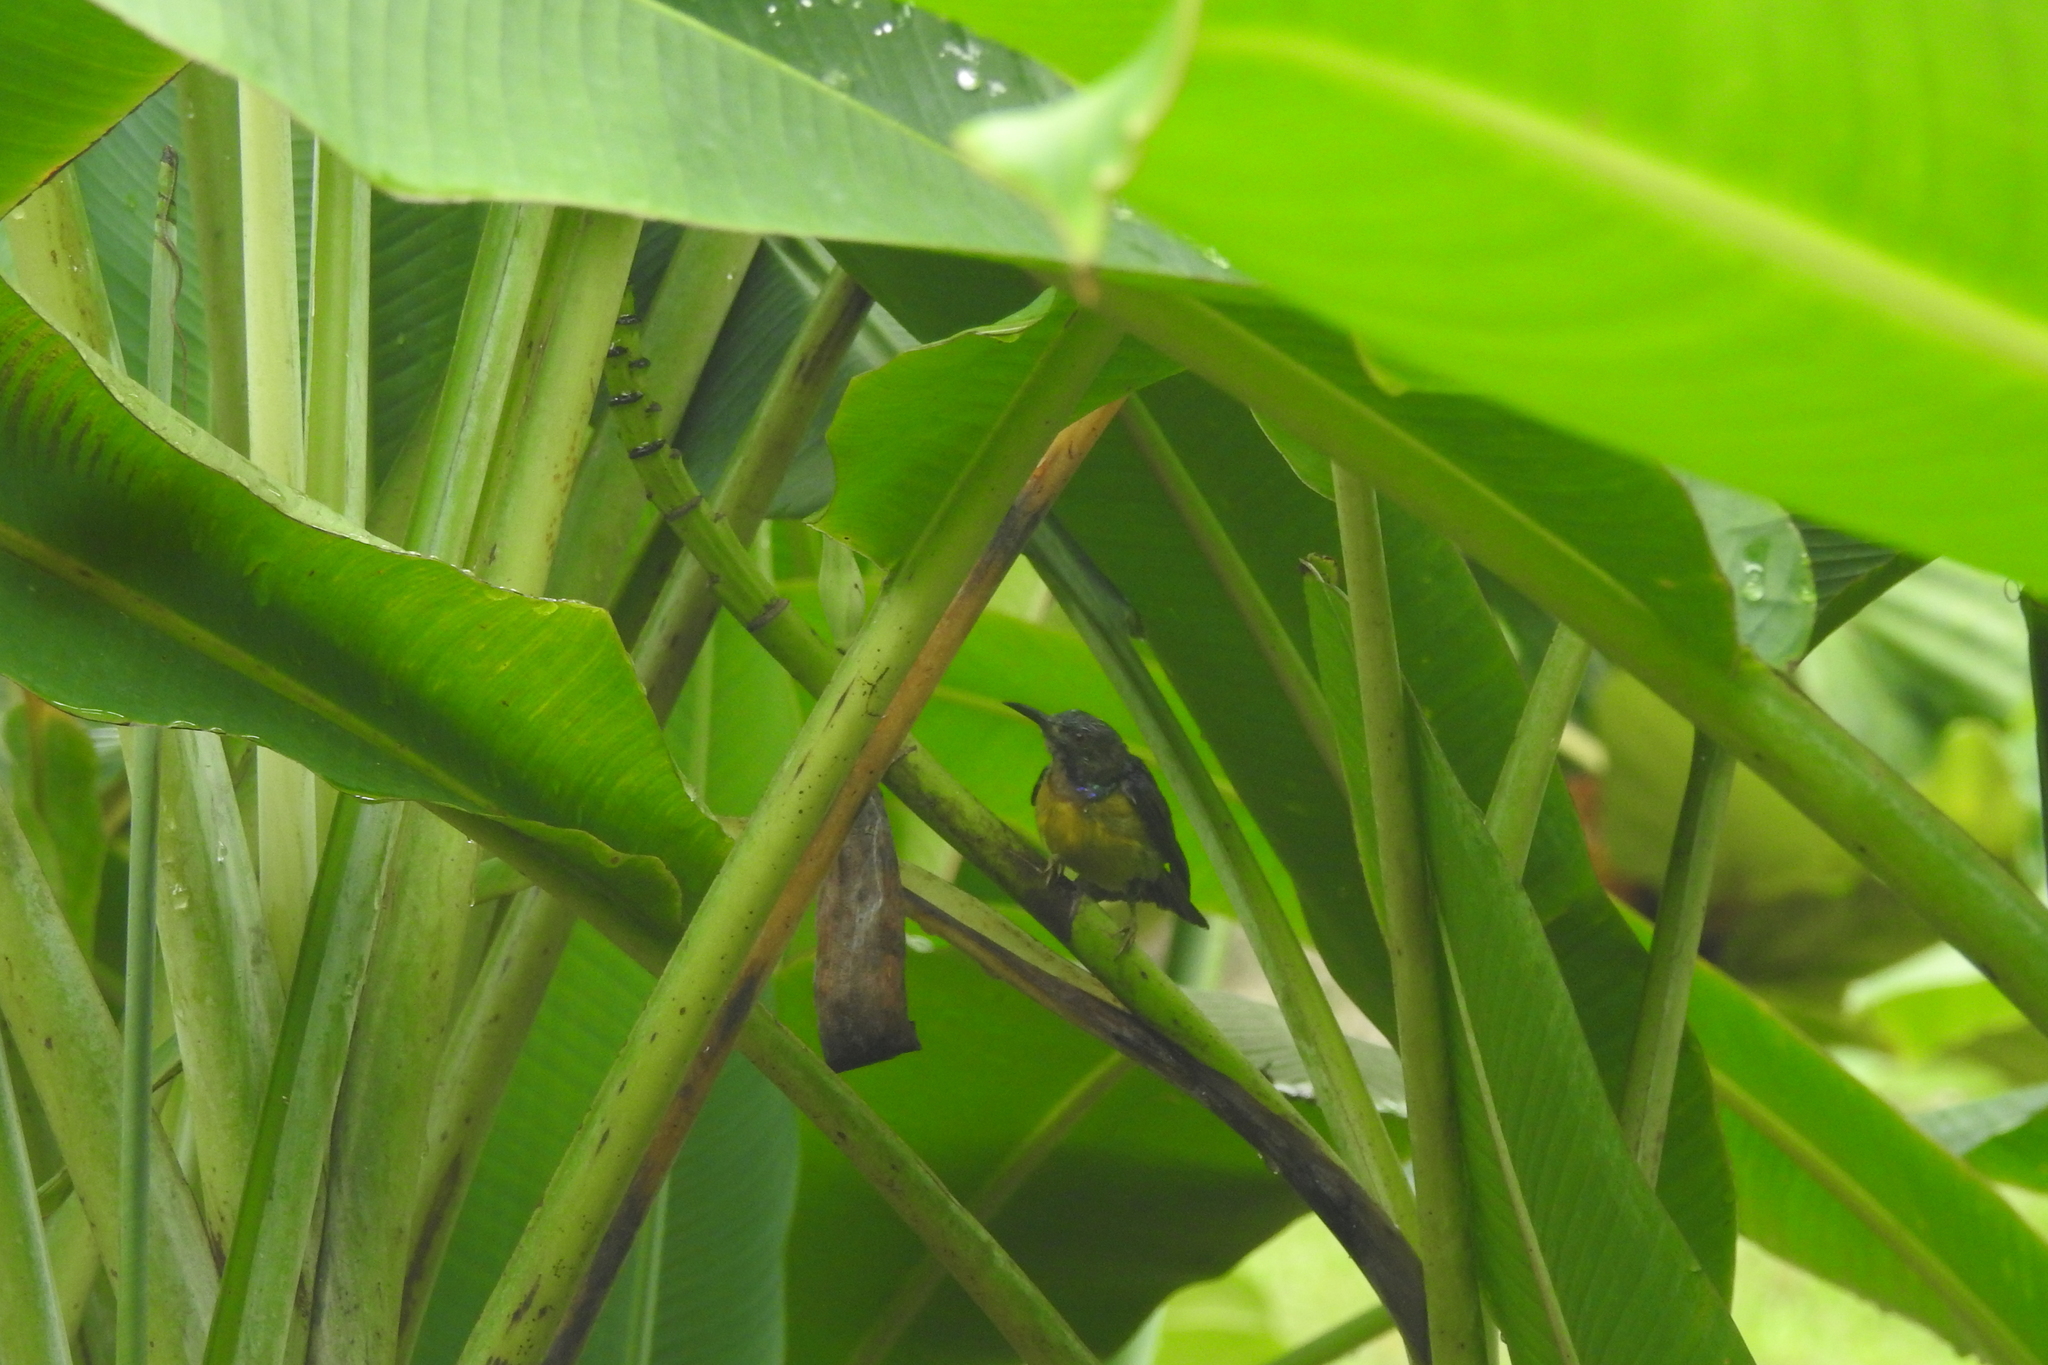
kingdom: Animalia
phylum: Chordata
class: Aves
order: Passeriformes
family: Nectariniidae
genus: Anthreptes
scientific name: Anthreptes malacensis
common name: Brown-throated sunbird
